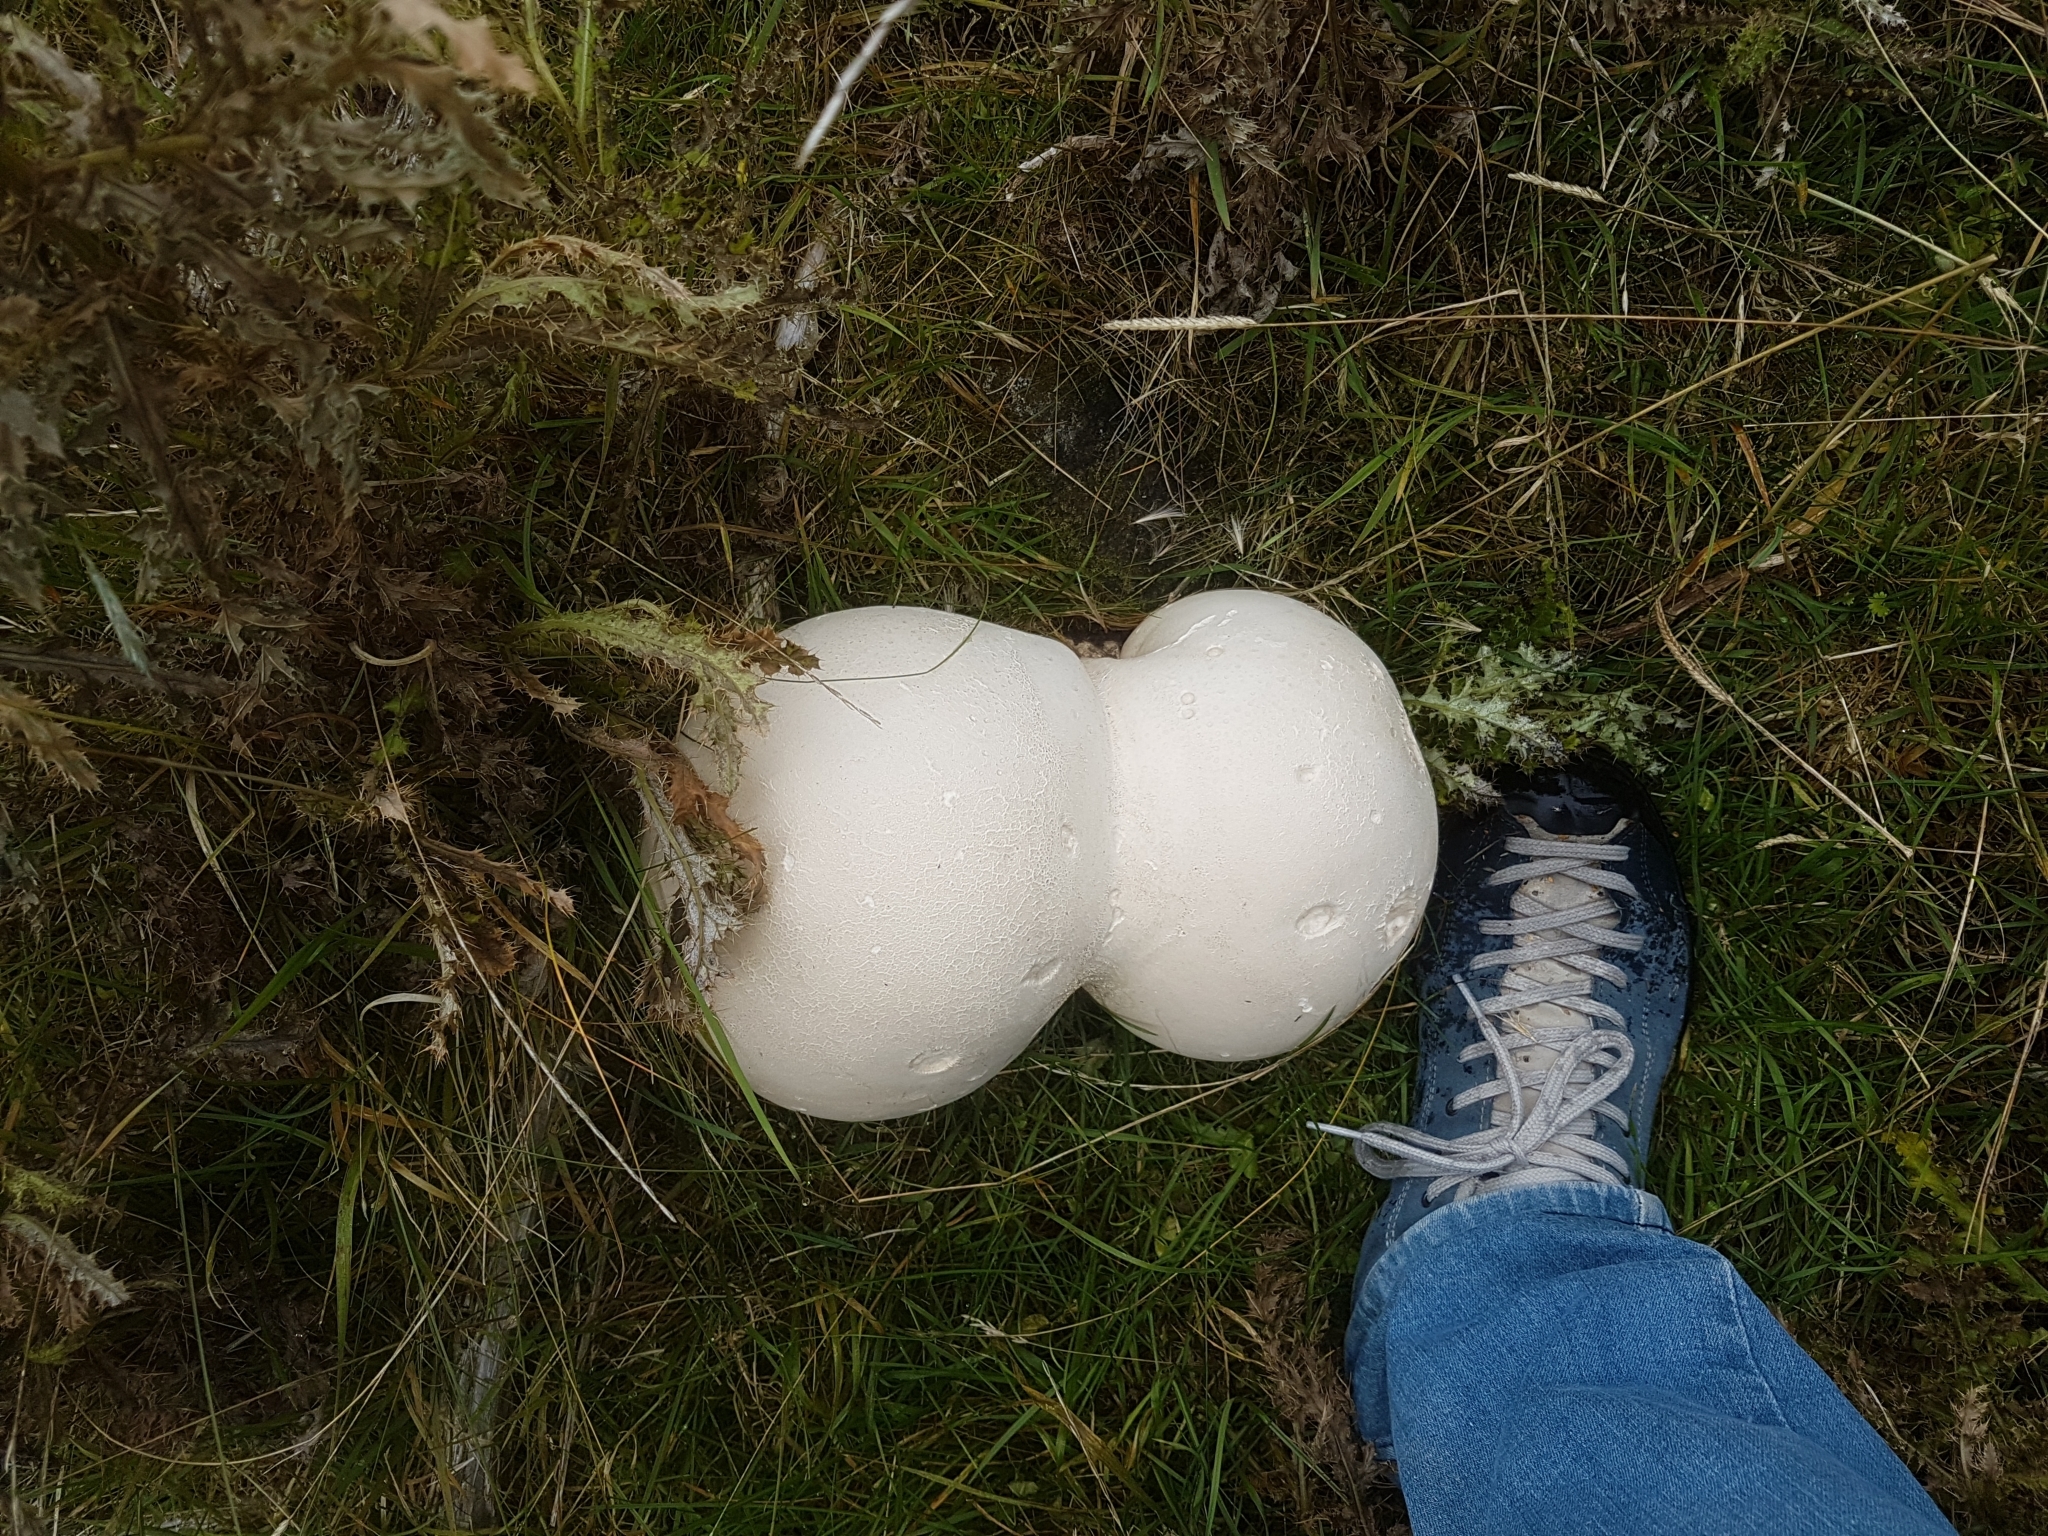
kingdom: Fungi
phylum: Basidiomycota
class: Agaricomycetes
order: Agaricales
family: Lycoperdaceae
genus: Calvatia
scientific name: Calvatia gigantea
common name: Giant puffball
